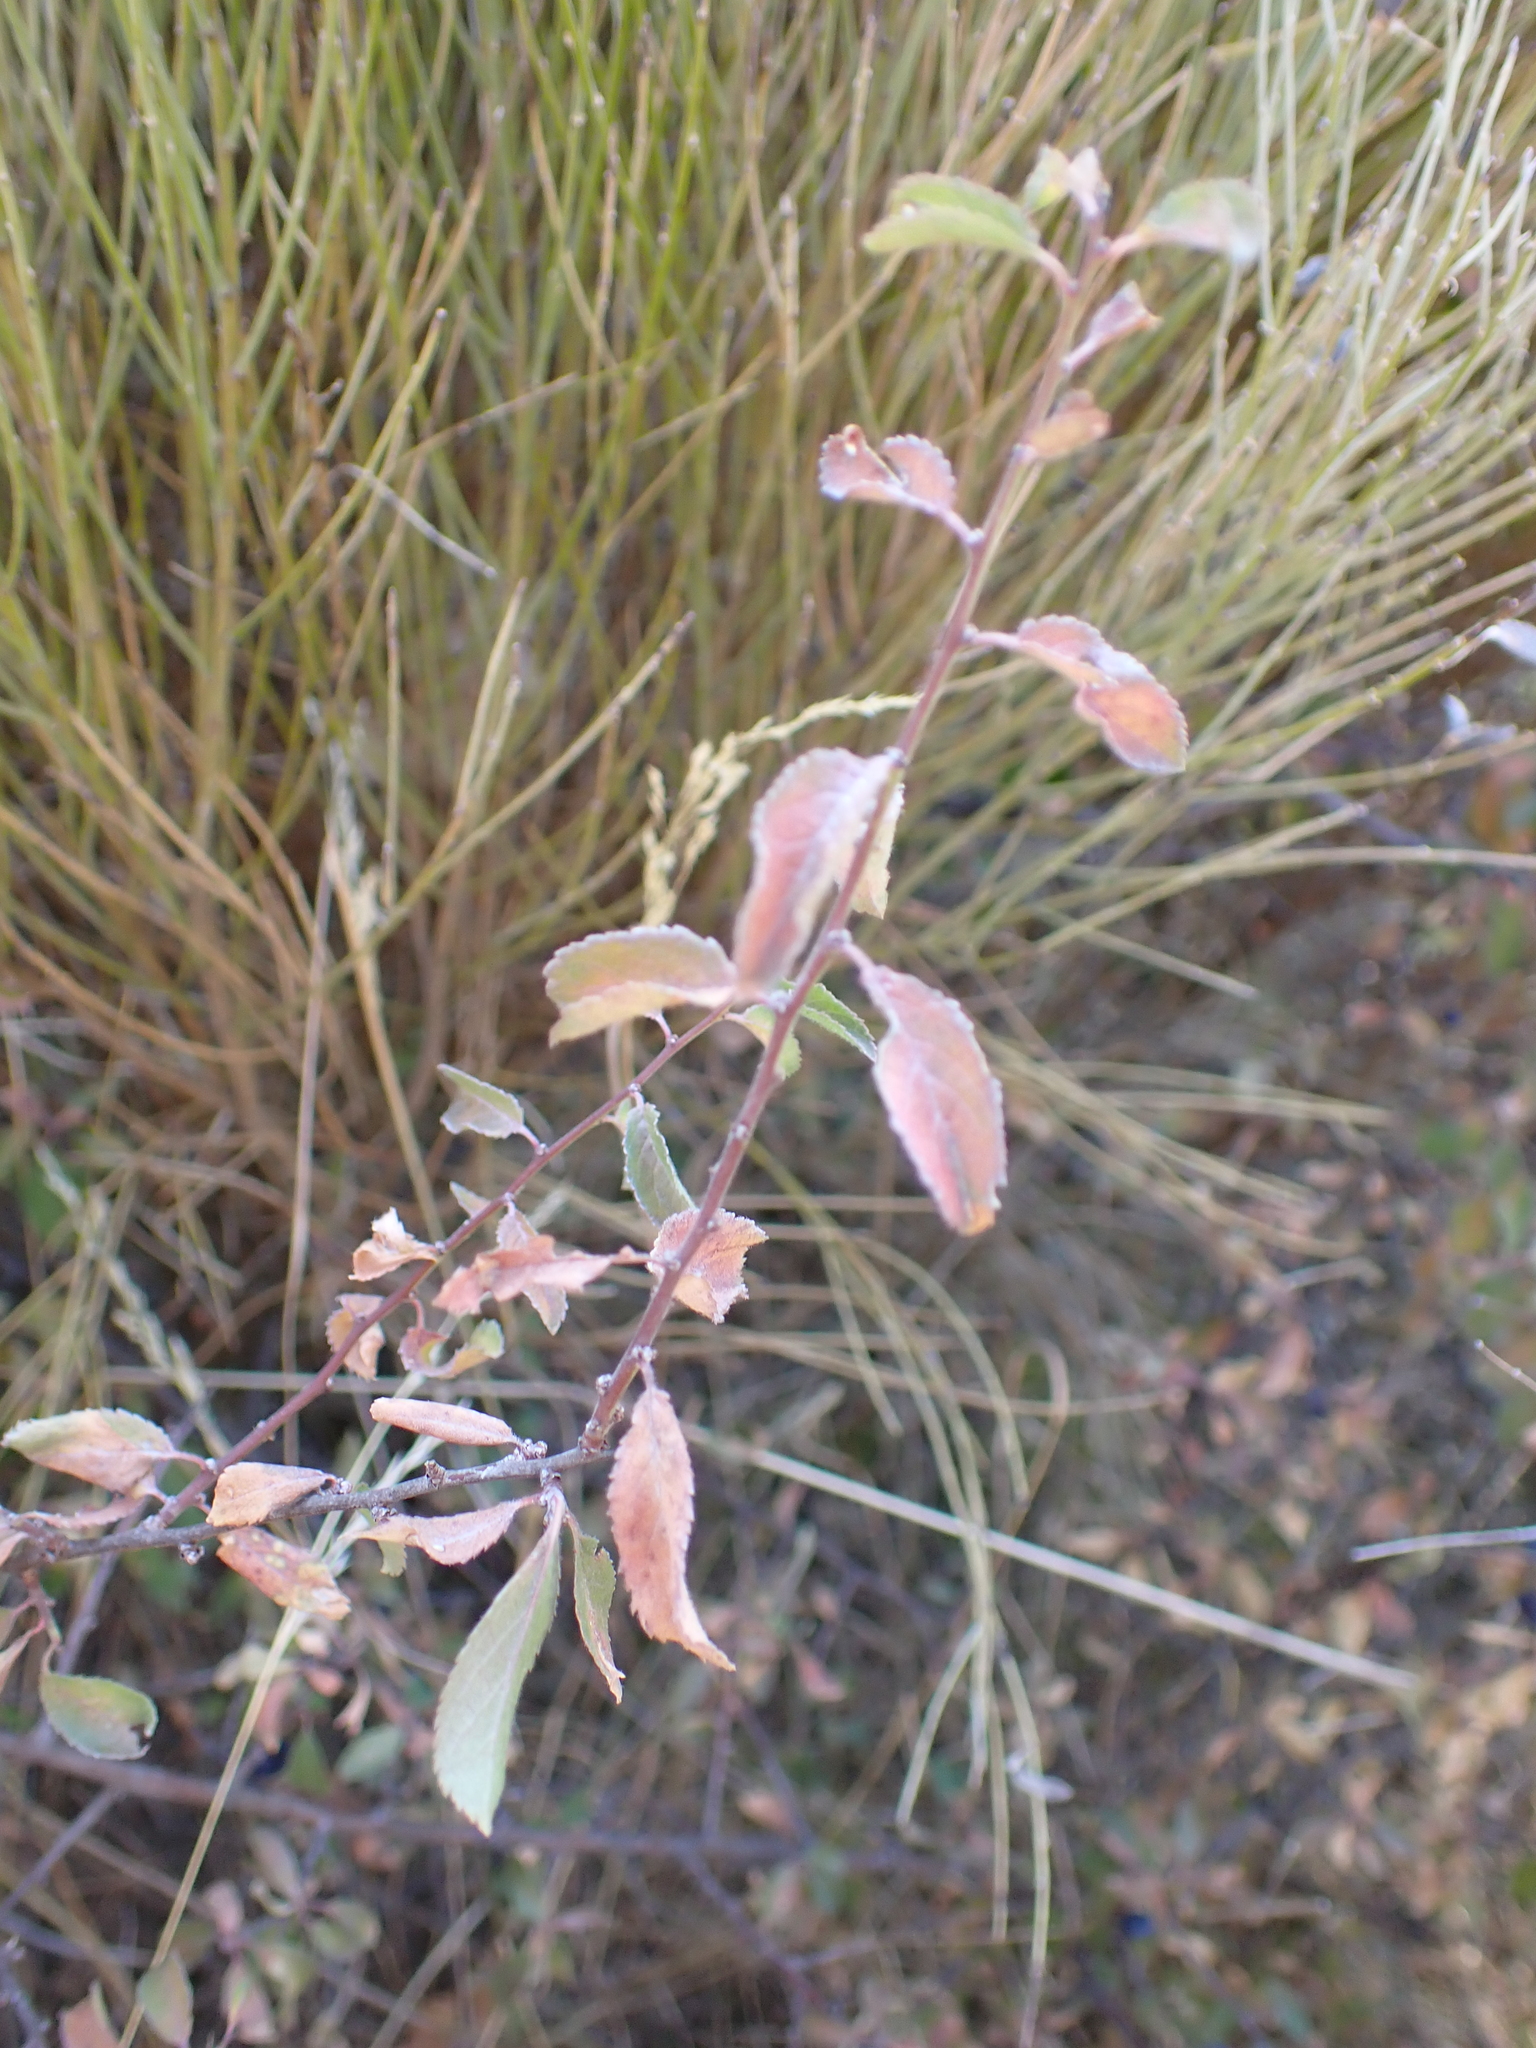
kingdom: Plantae
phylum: Tracheophyta
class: Magnoliopsida
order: Rosales
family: Rosaceae
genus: Prunus
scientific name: Prunus spinosa
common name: Blackthorn
